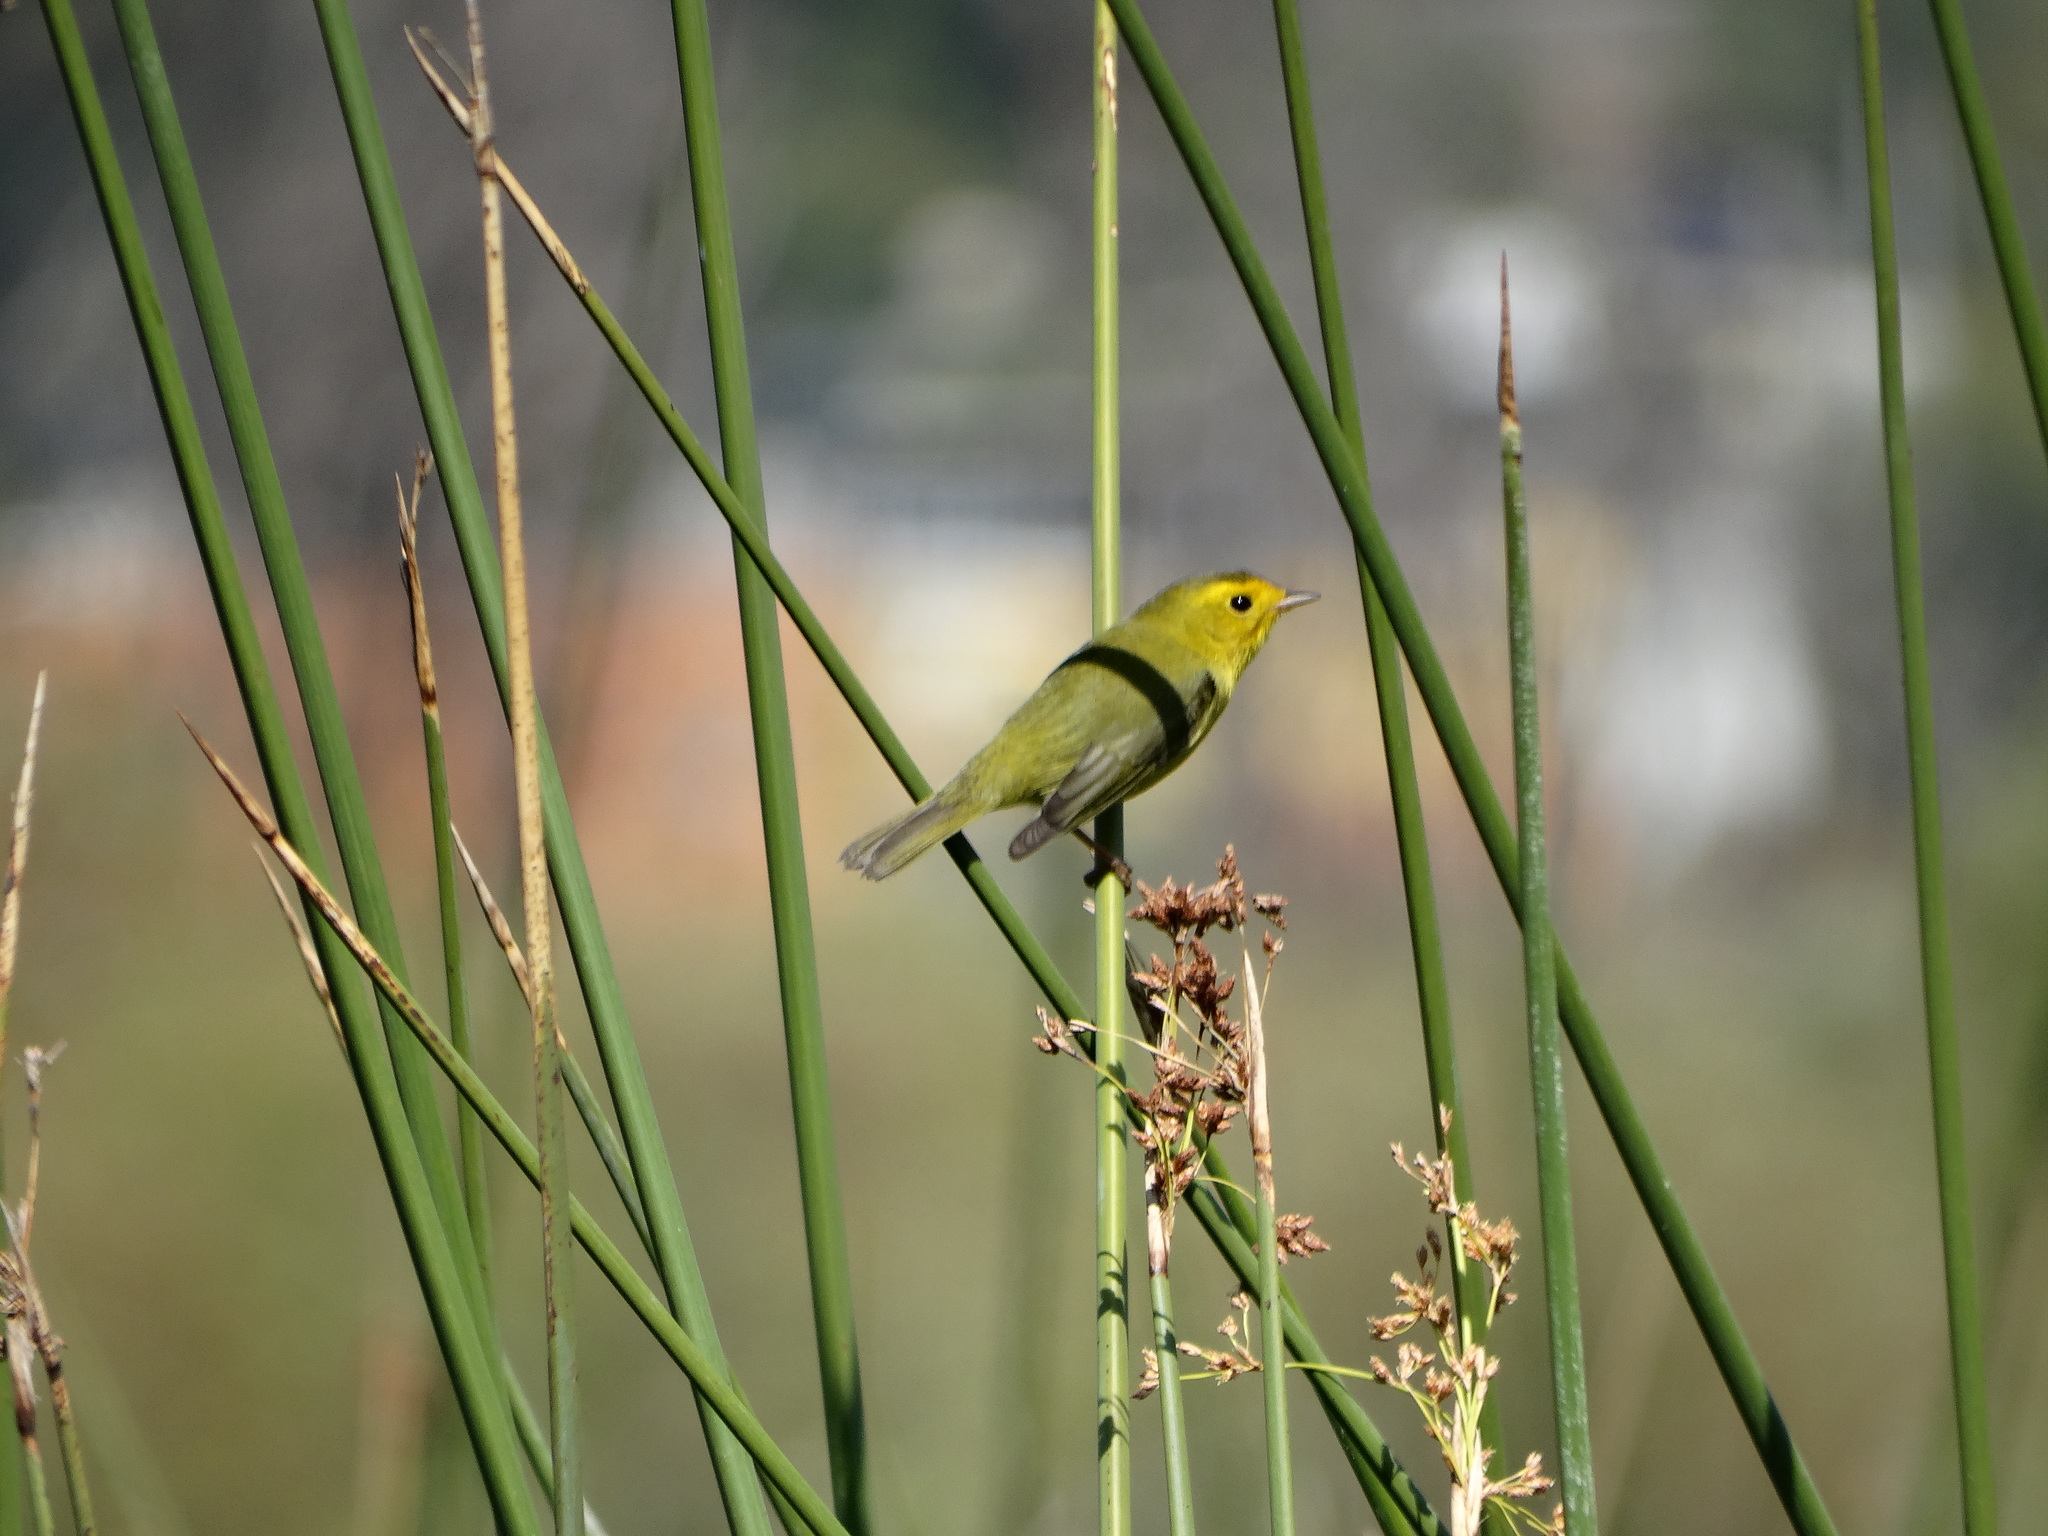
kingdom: Animalia
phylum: Chordata
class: Aves
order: Passeriformes
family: Parulidae
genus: Cardellina
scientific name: Cardellina pusilla
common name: Wilson's warbler
